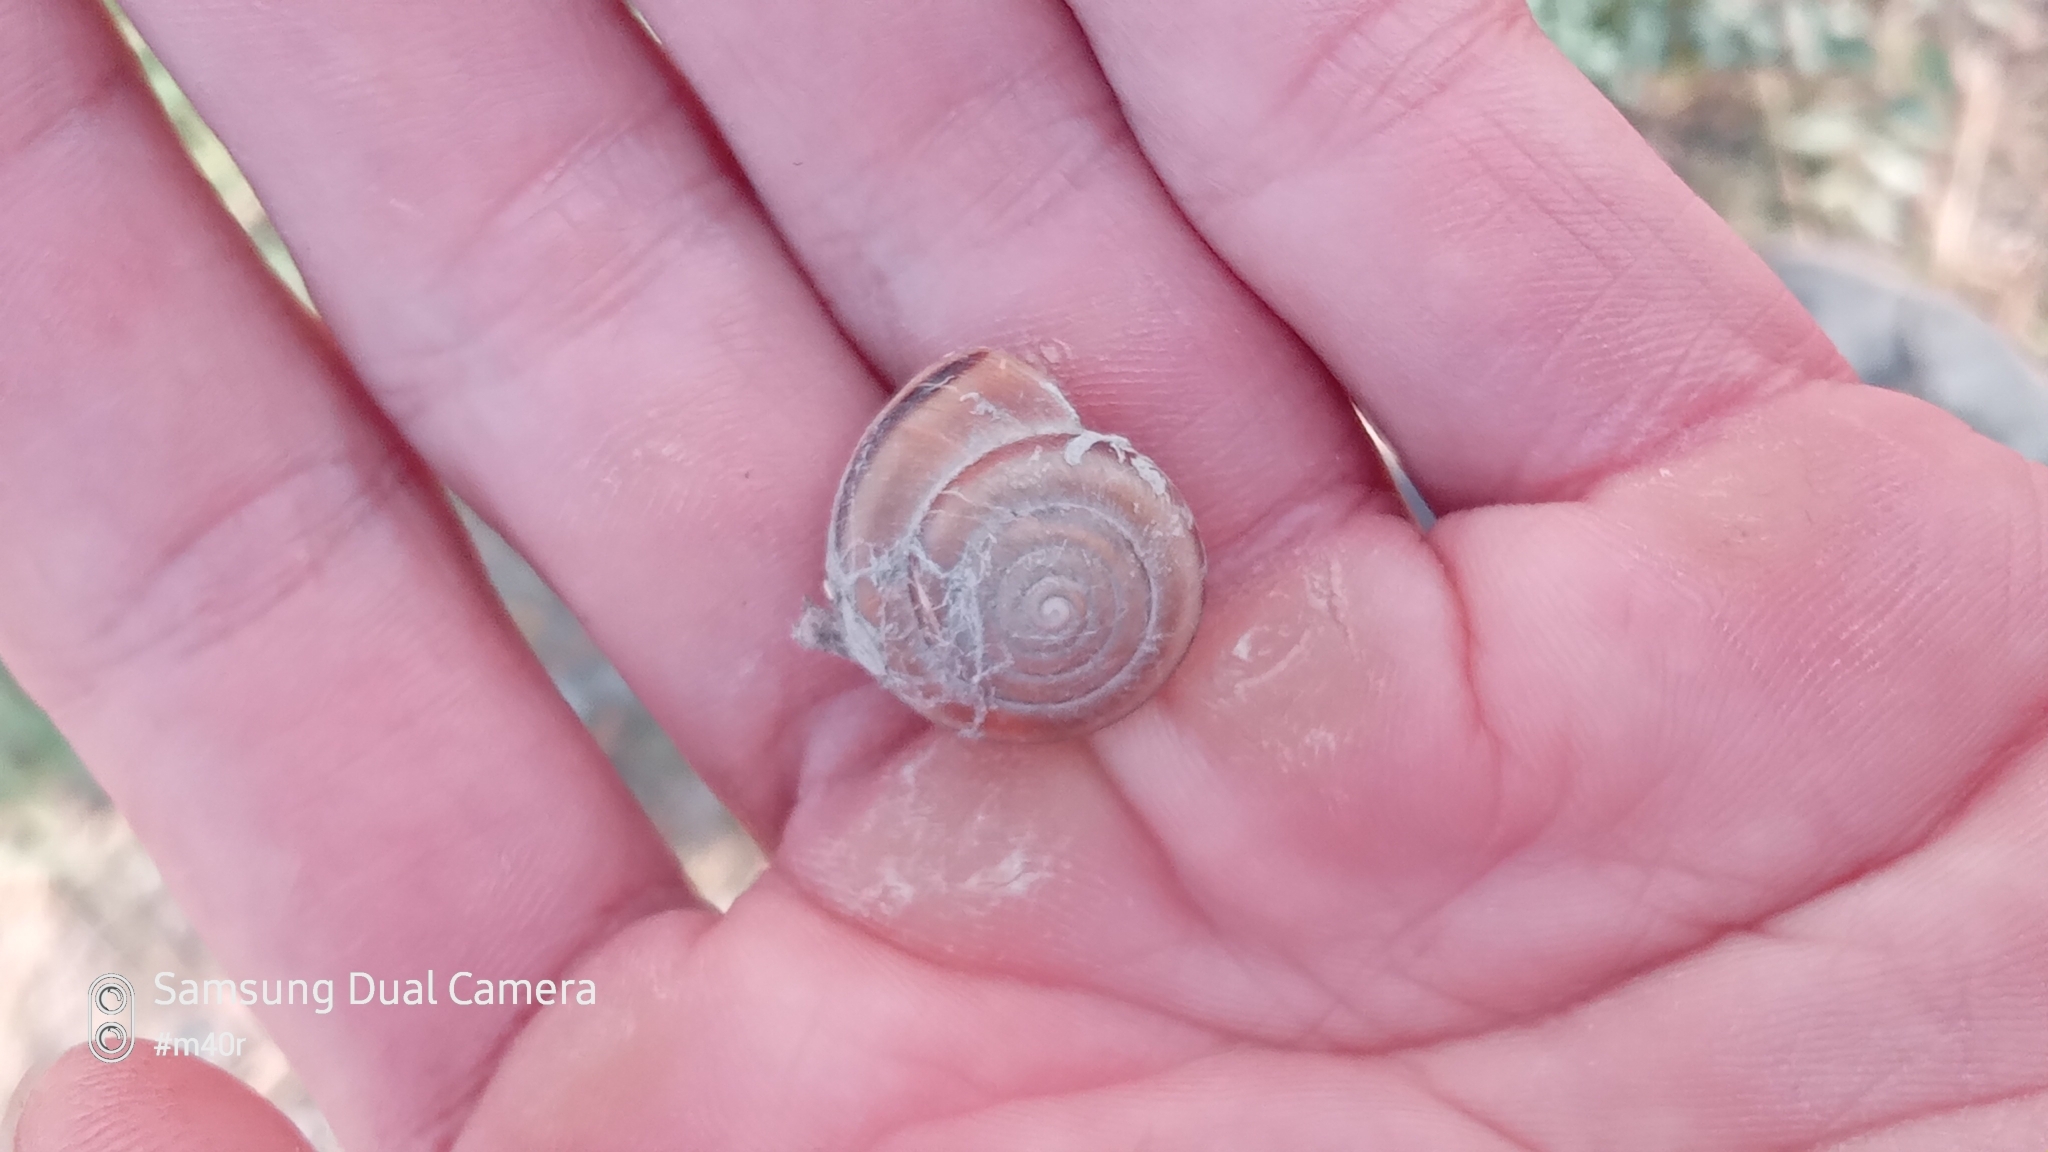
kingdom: Animalia
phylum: Mollusca
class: Gastropoda
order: Stylommatophora
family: Camaenidae
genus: Fruticicola
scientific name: Fruticicola lantzi
